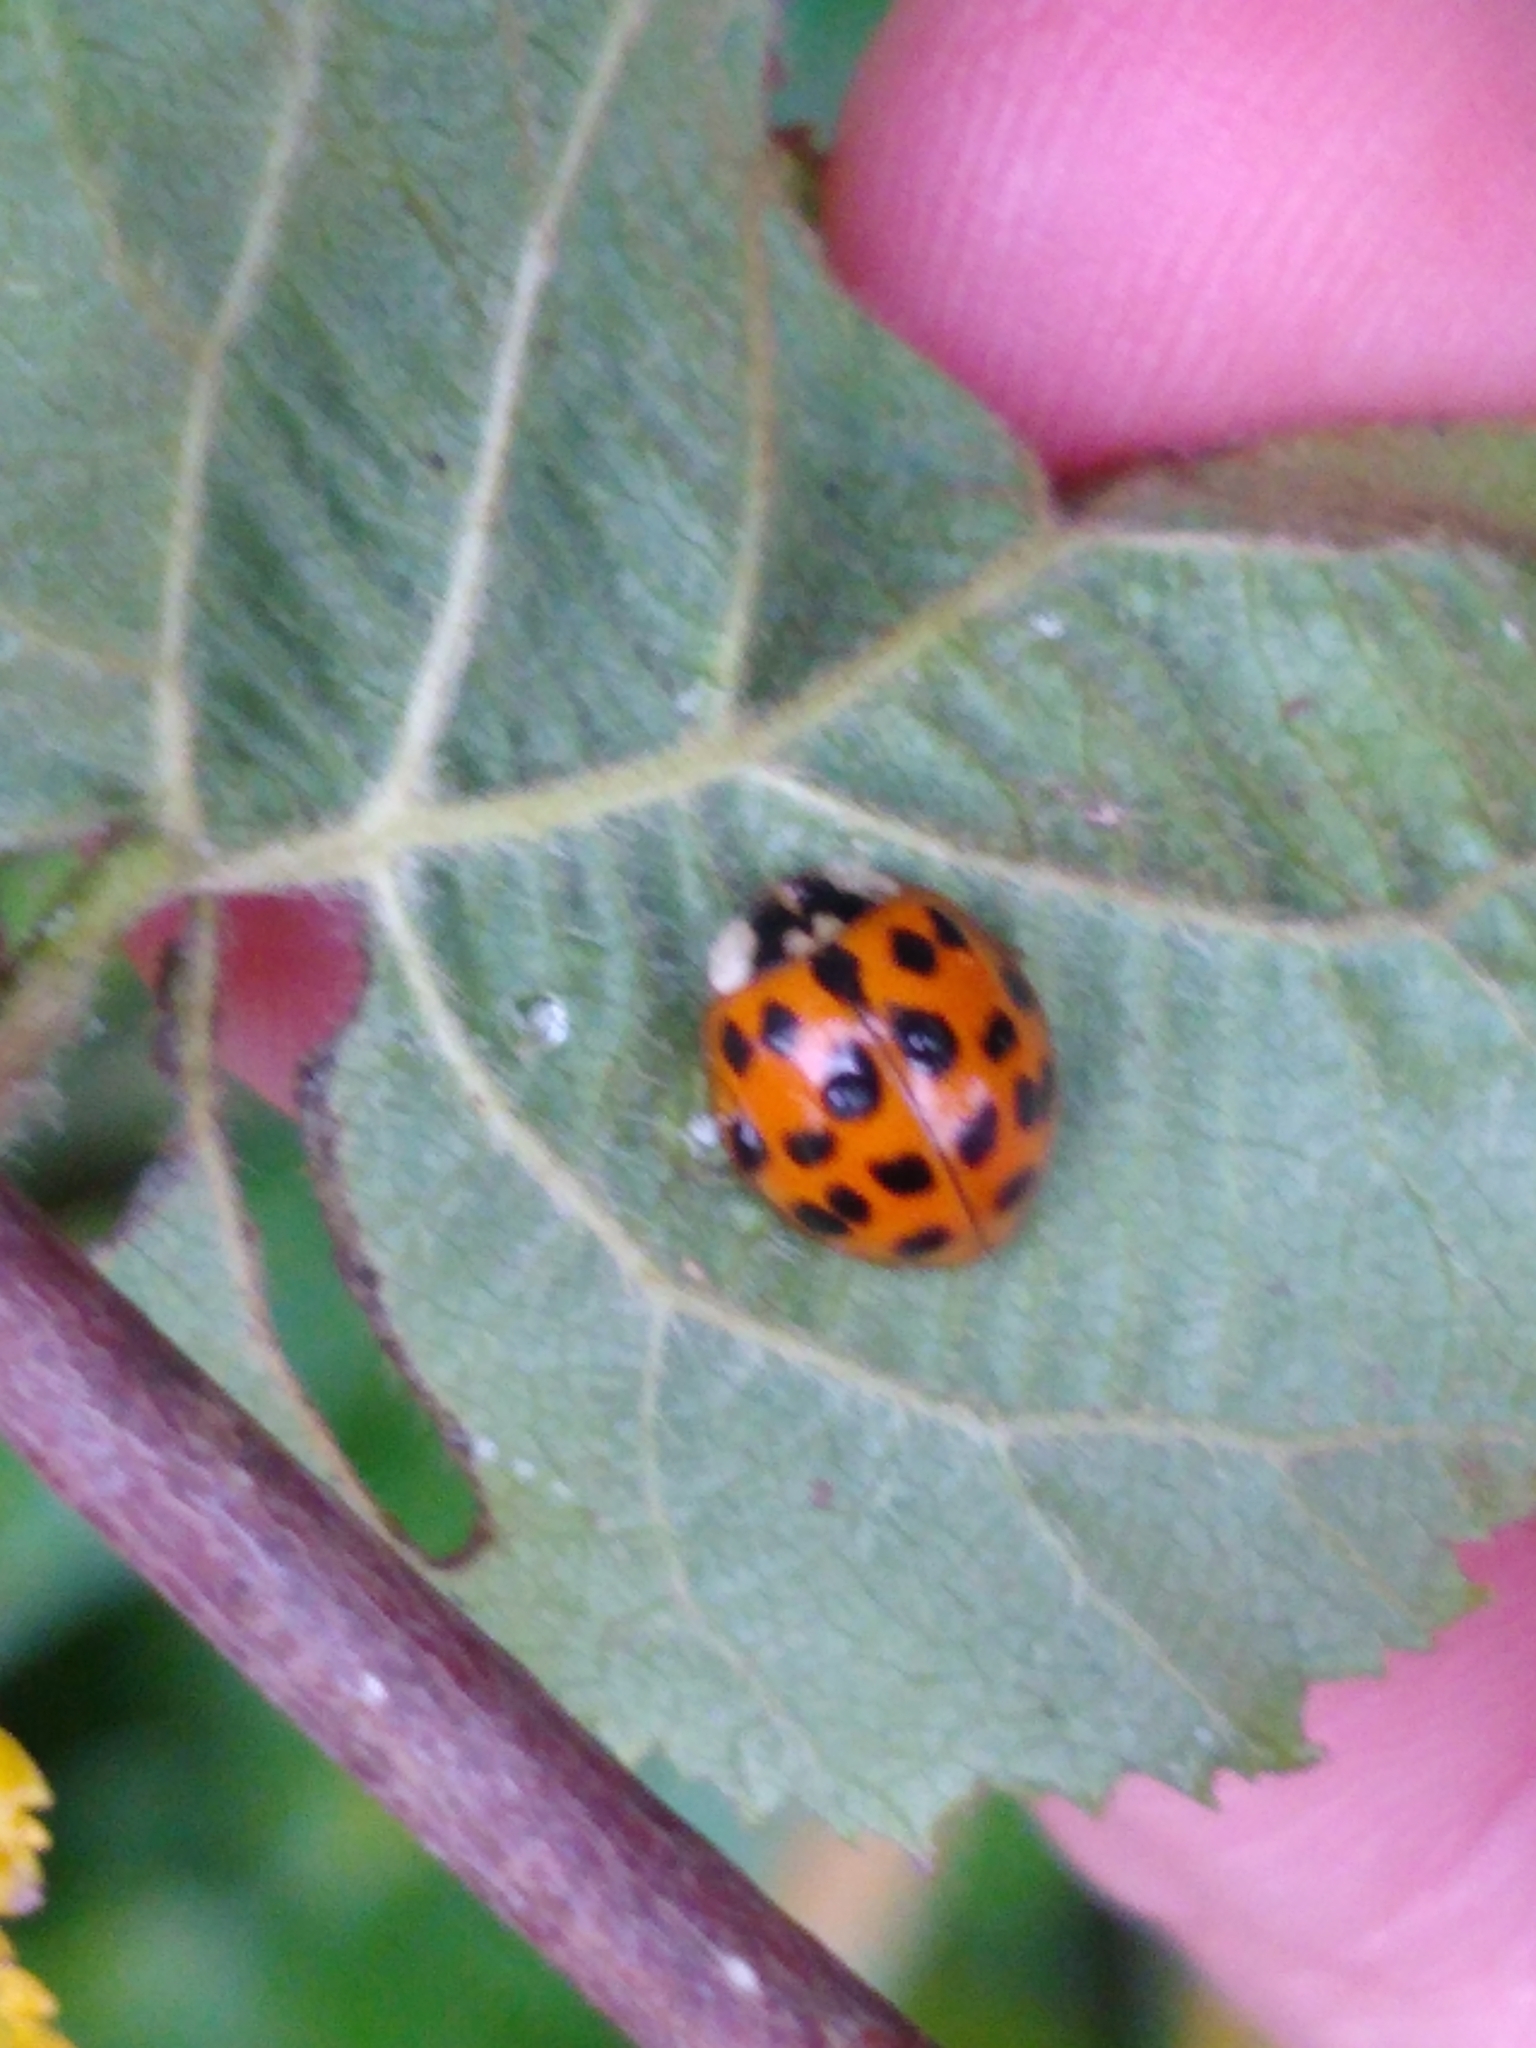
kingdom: Animalia
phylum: Arthropoda
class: Insecta
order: Coleoptera
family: Coccinellidae
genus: Harmonia
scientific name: Harmonia axyridis
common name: Harlequin ladybird
